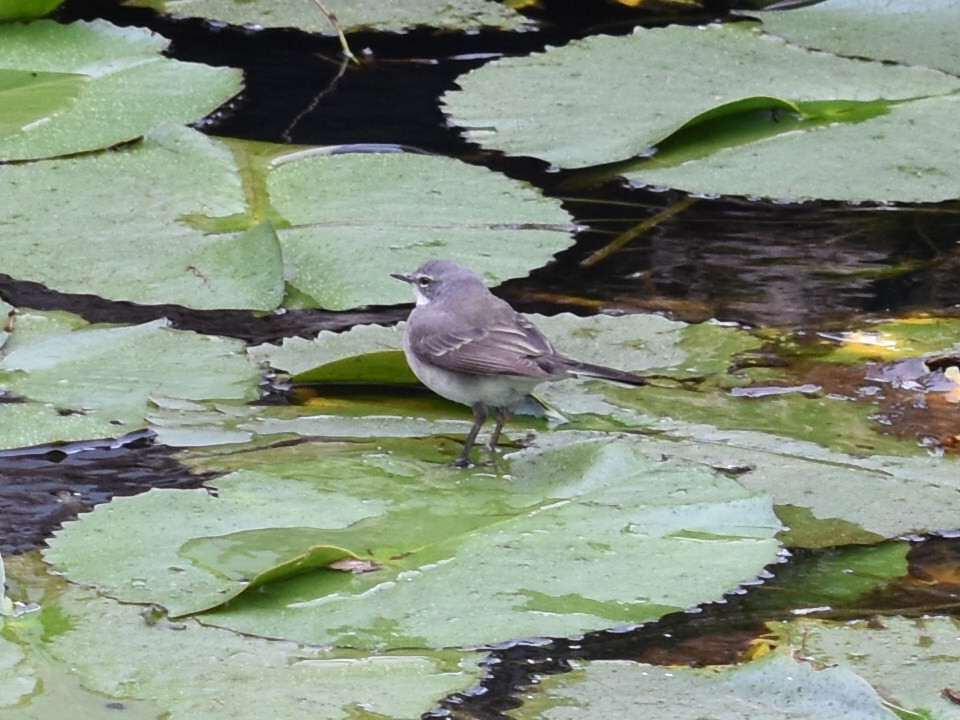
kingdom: Animalia
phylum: Chordata
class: Aves
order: Passeriformes
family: Motacillidae
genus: Motacilla
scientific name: Motacilla capensis
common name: Cape wagtail
